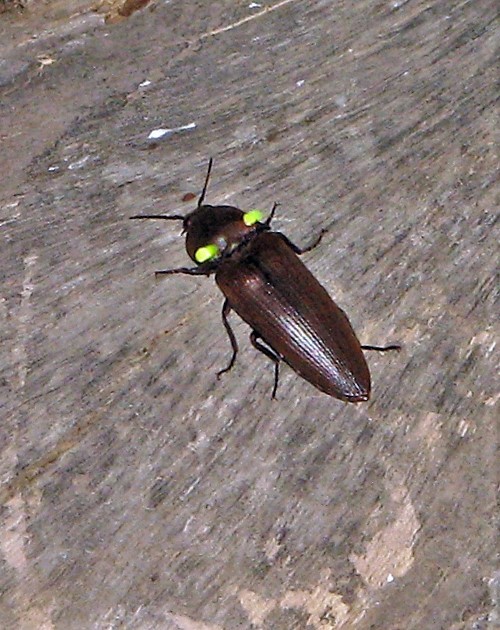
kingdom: Animalia
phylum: Arthropoda
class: Insecta
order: Coleoptera
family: Elateridae
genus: Pyrophorus
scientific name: Pyrophorus
